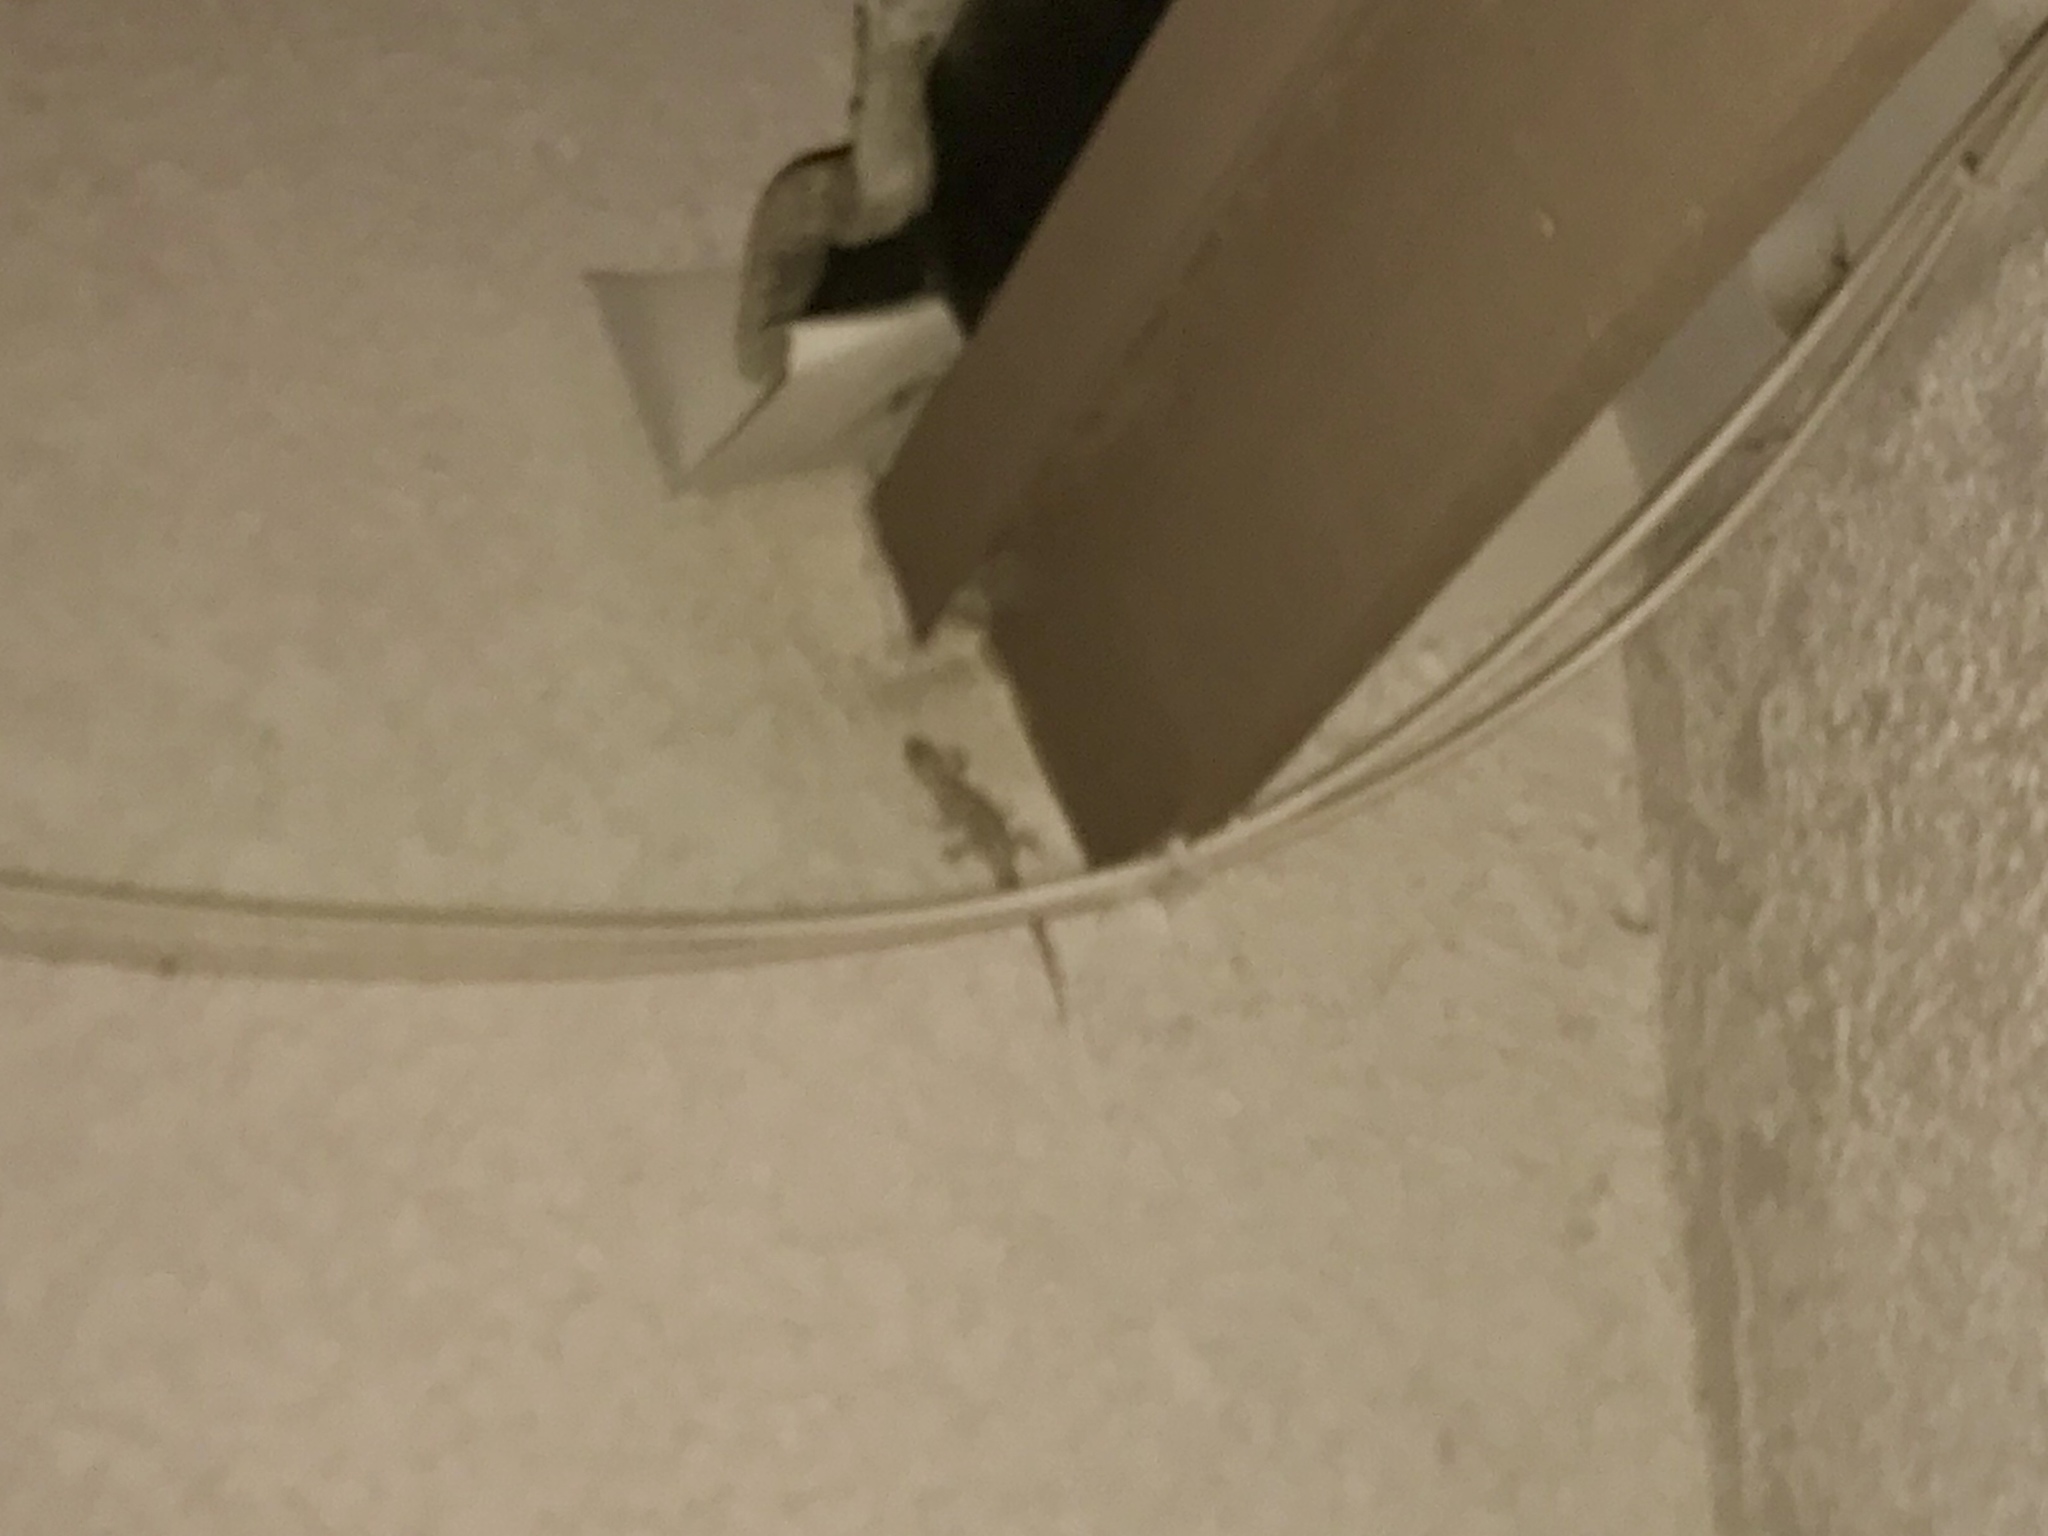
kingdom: Animalia
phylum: Chordata
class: Squamata
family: Gekkonidae
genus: Hemidactylus
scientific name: Hemidactylus turcicus
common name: Turkish gecko
